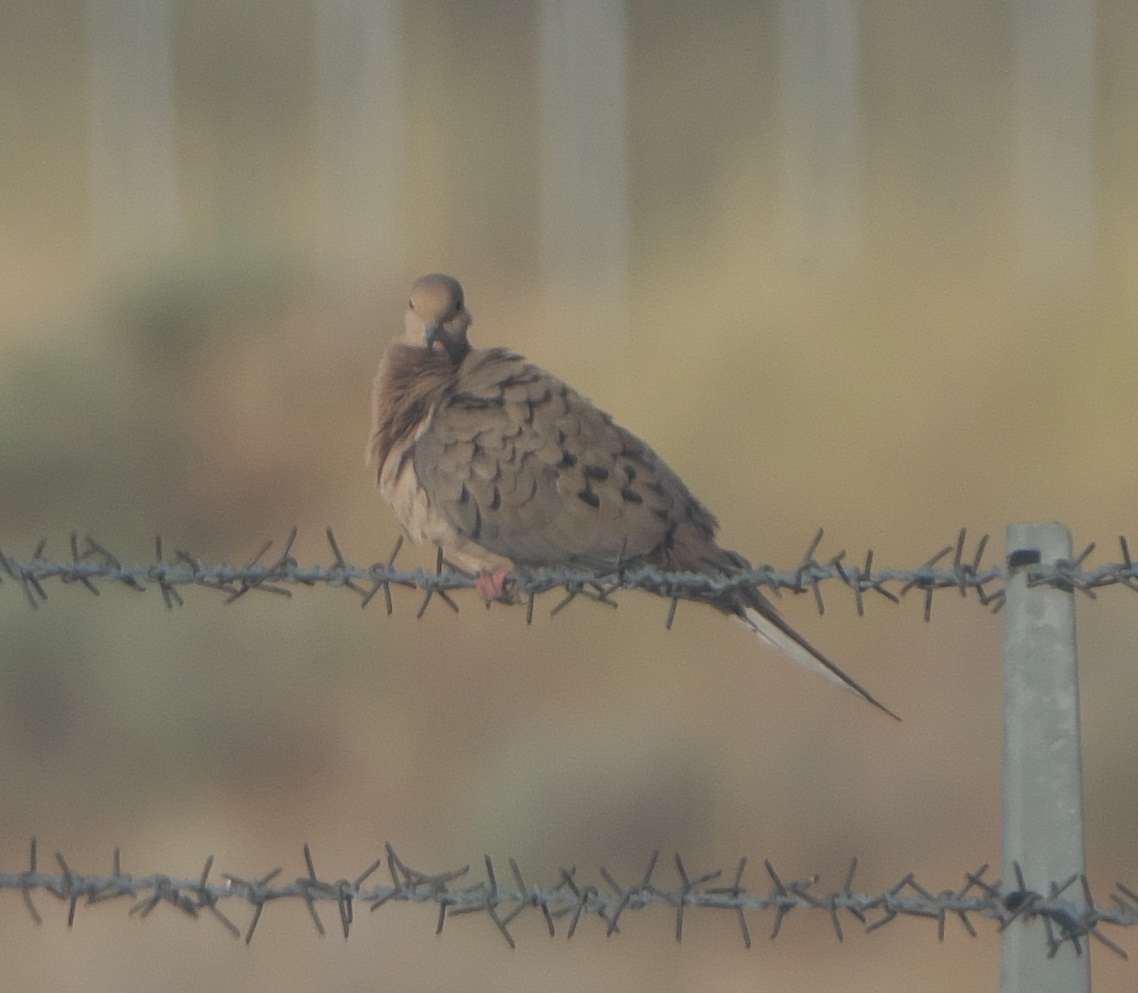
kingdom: Animalia
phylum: Chordata
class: Aves
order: Columbiformes
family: Columbidae
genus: Zenaida
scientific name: Zenaida macroura
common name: Mourning dove
